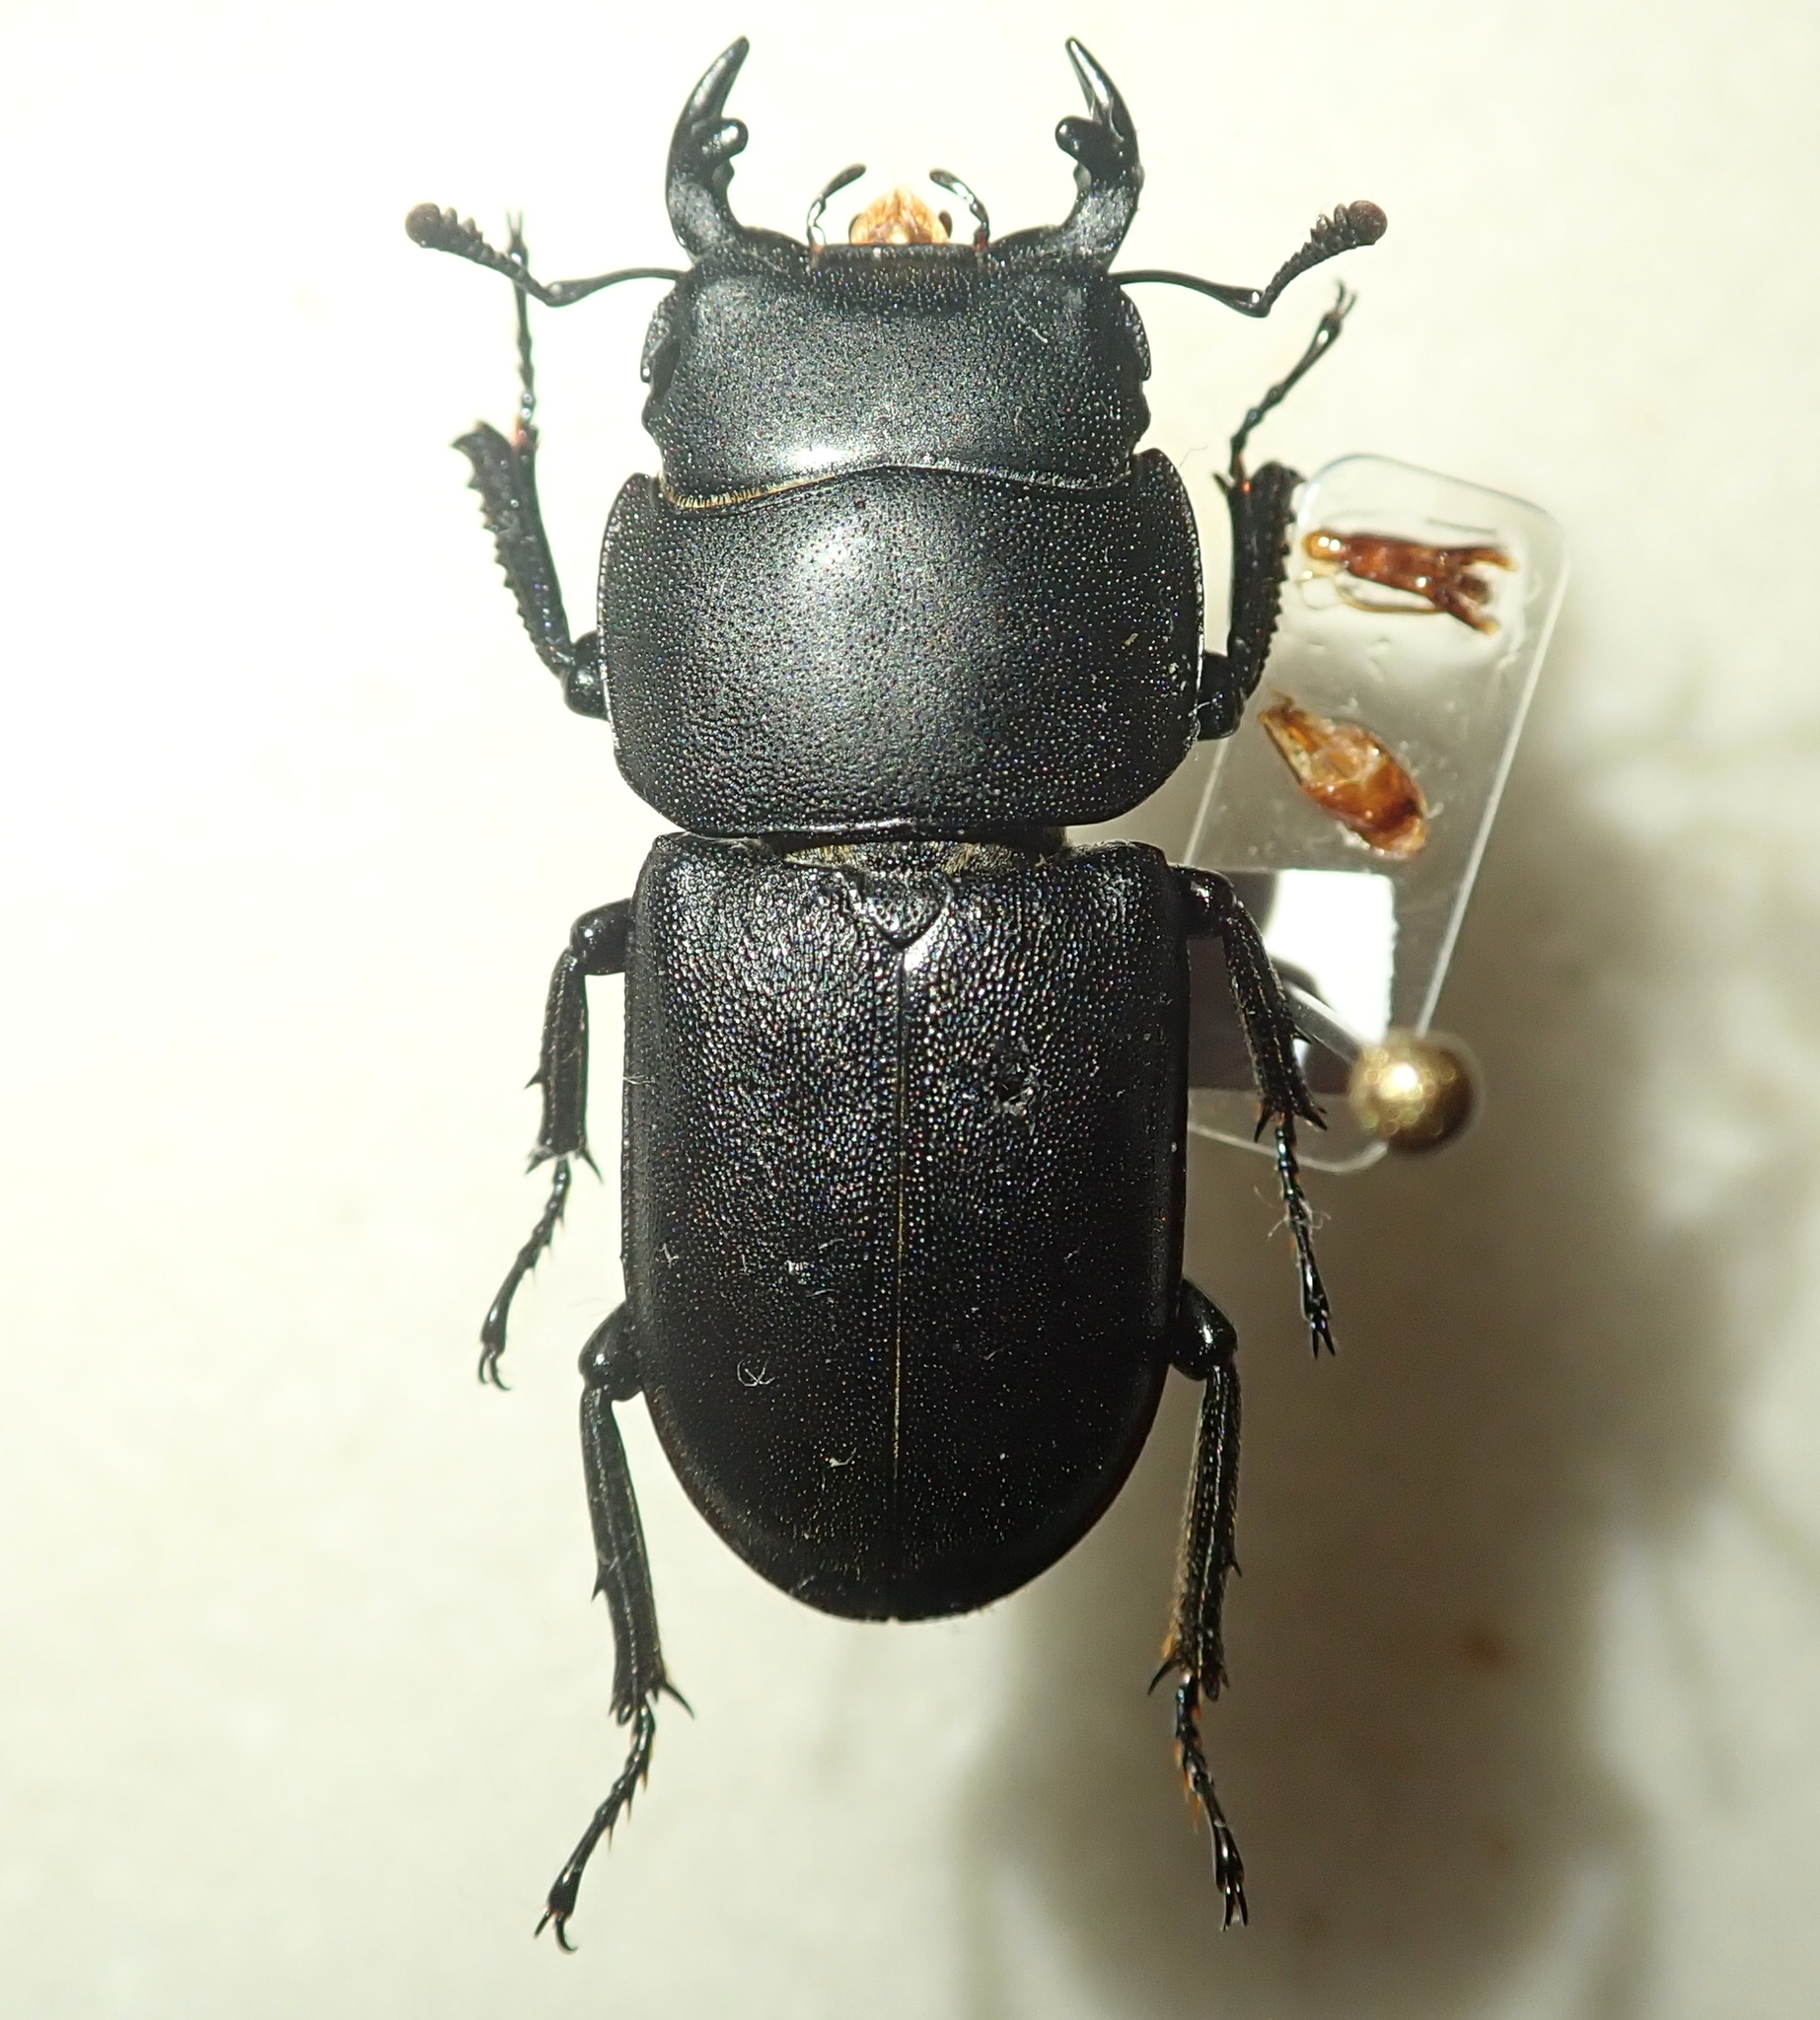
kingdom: Animalia
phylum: Arthropoda
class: Insecta
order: Coleoptera
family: Lucanidae
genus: Dorcus
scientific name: Dorcus parallelipipedus
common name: Lesser stag beetle
